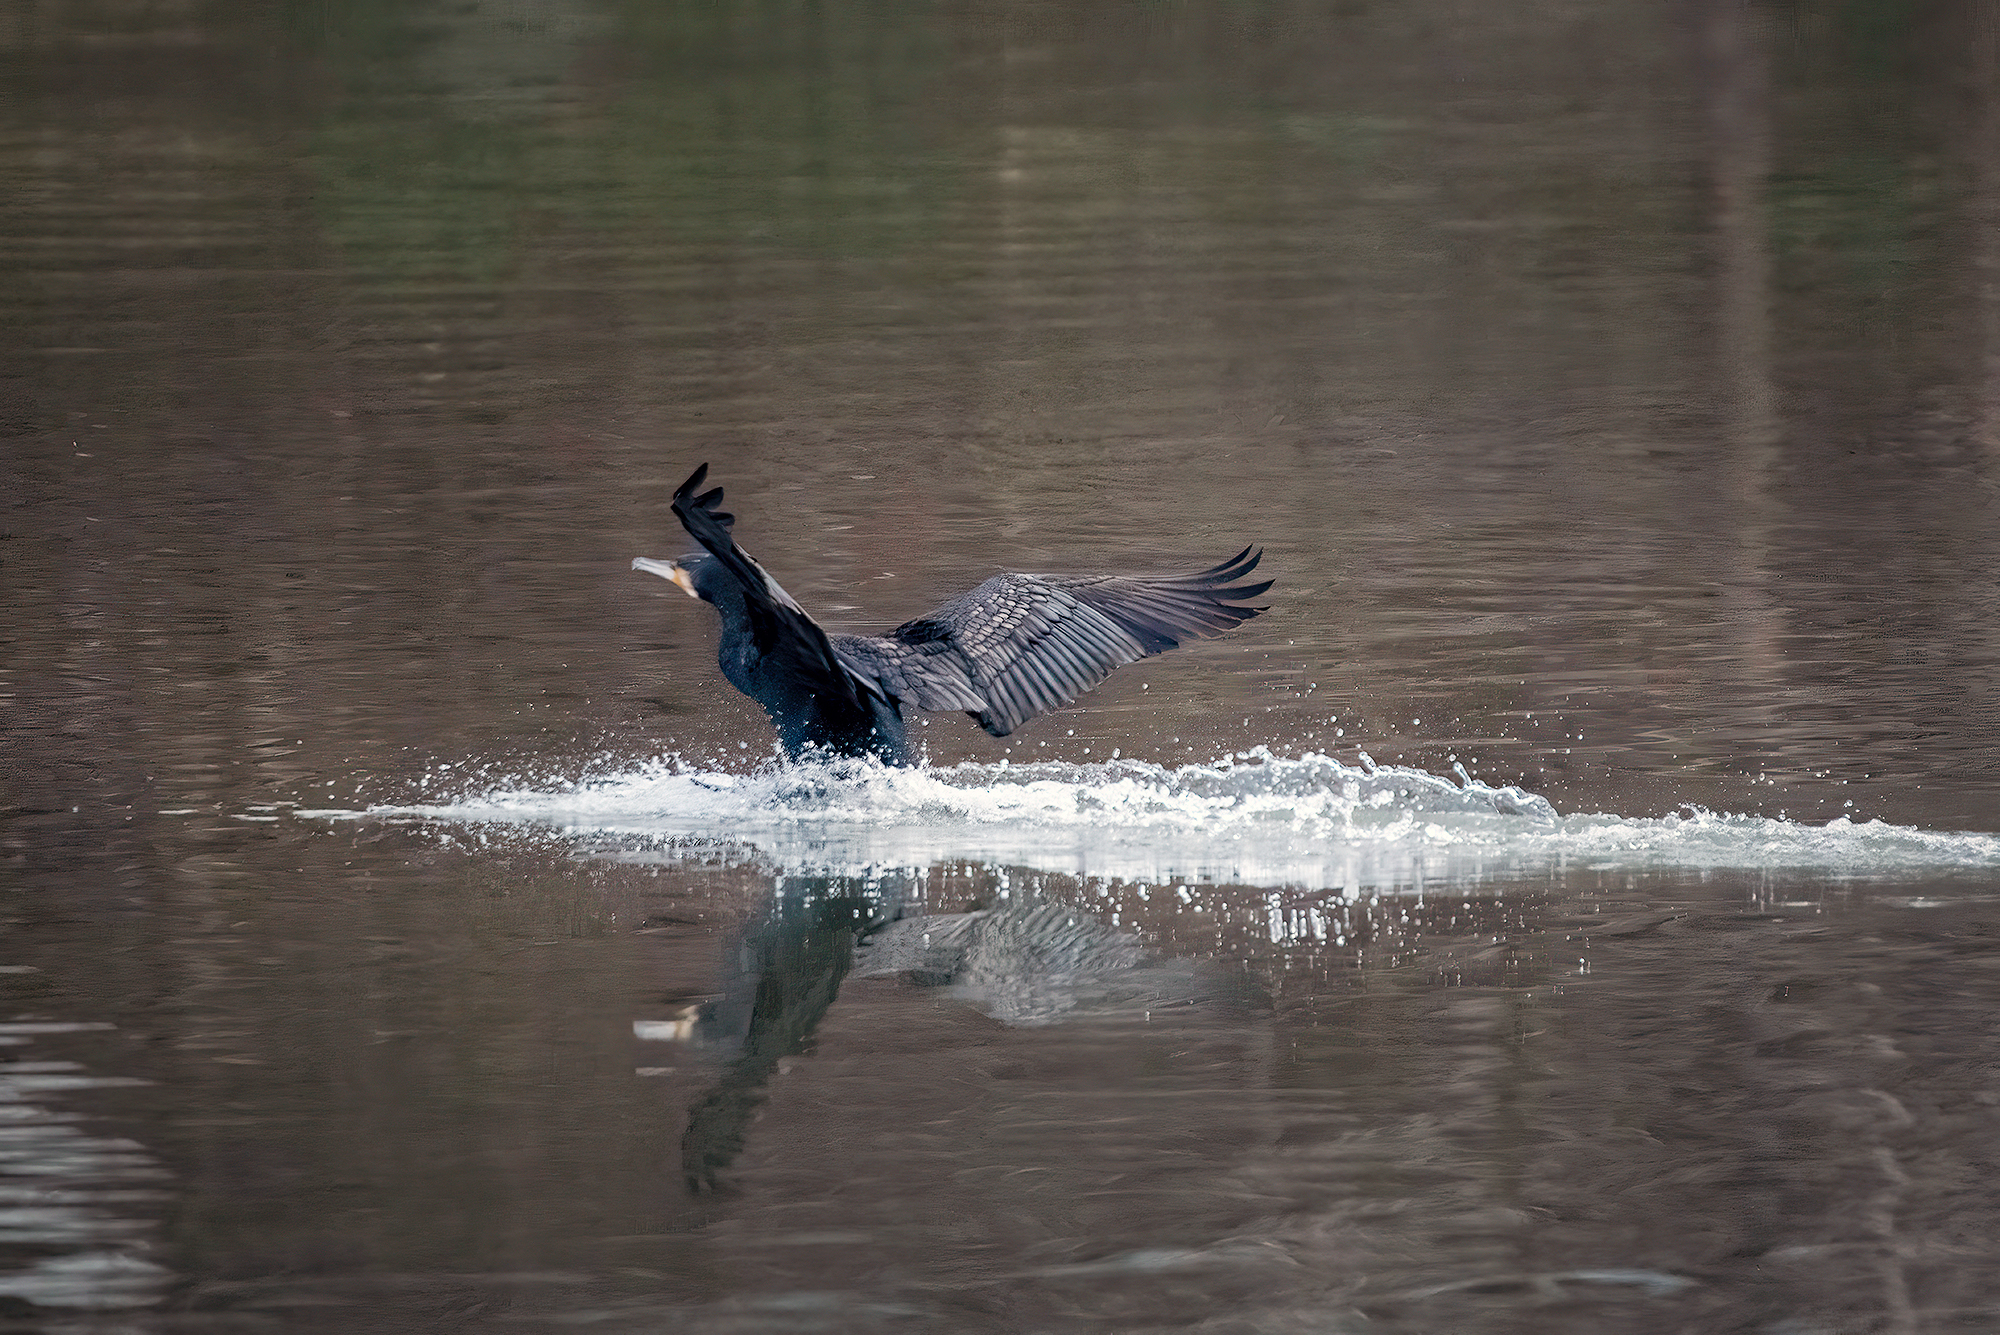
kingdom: Animalia
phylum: Chordata
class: Aves
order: Suliformes
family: Phalacrocoracidae
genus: Phalacrocorax
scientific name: Phalacrocorax carbo
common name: Great cormorant
